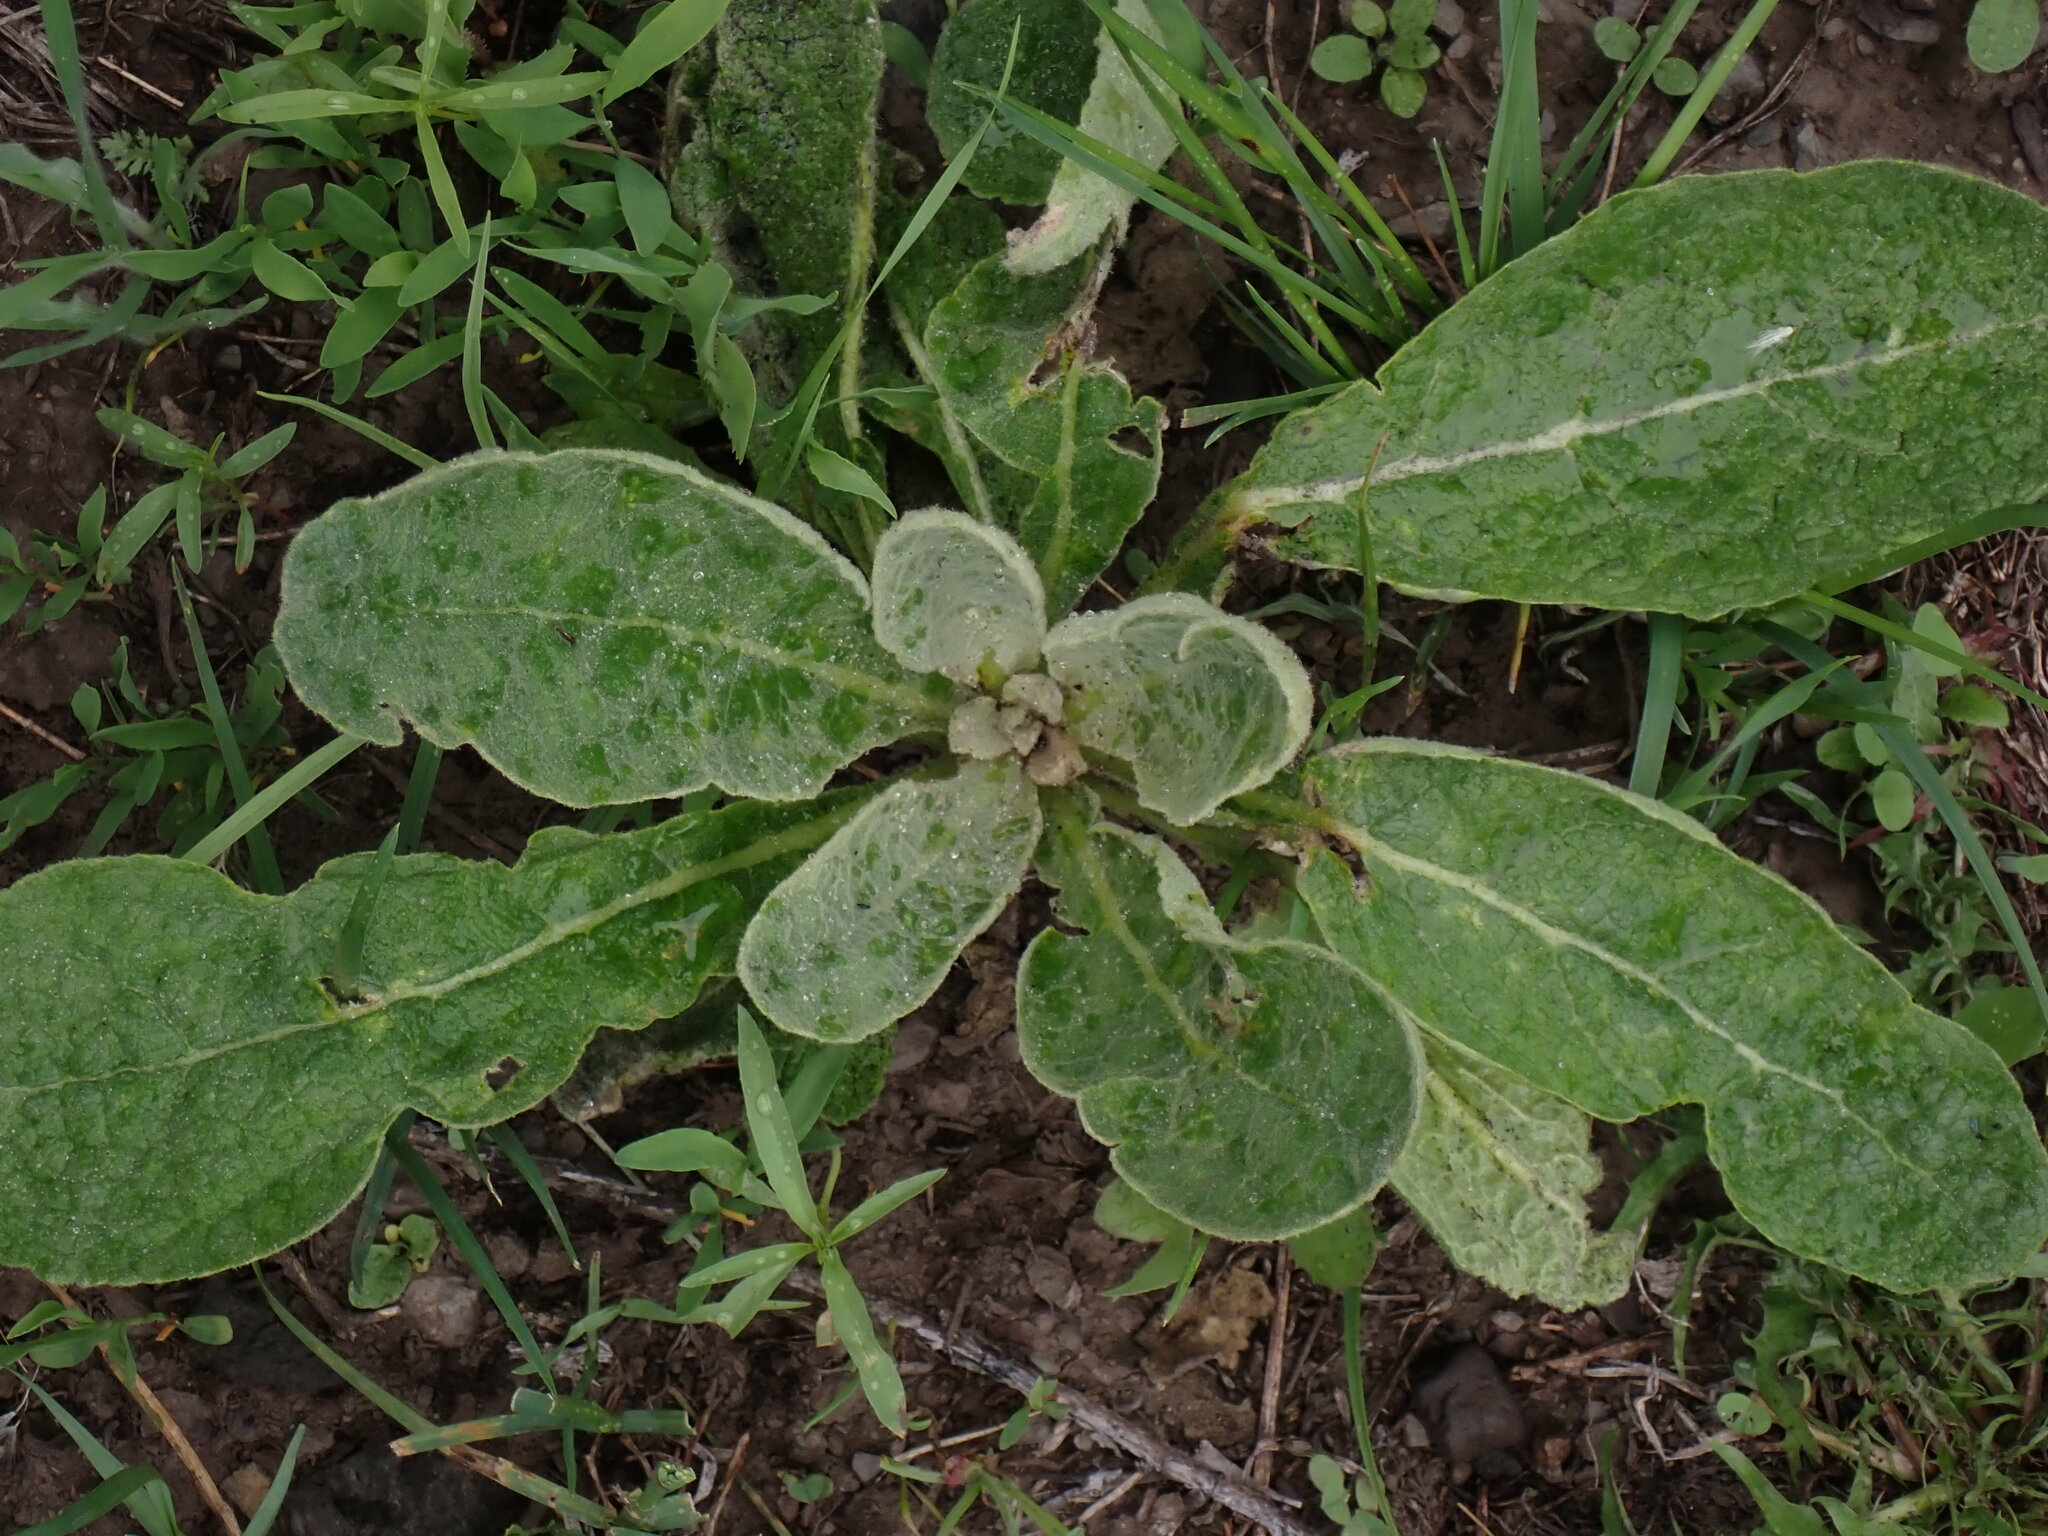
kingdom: Plantae
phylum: Tracheophyta
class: Magnoliopsida
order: Lamiales
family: Scrophulariaceae
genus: Verbascum
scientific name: Verbascum thapsus
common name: Common mullein
